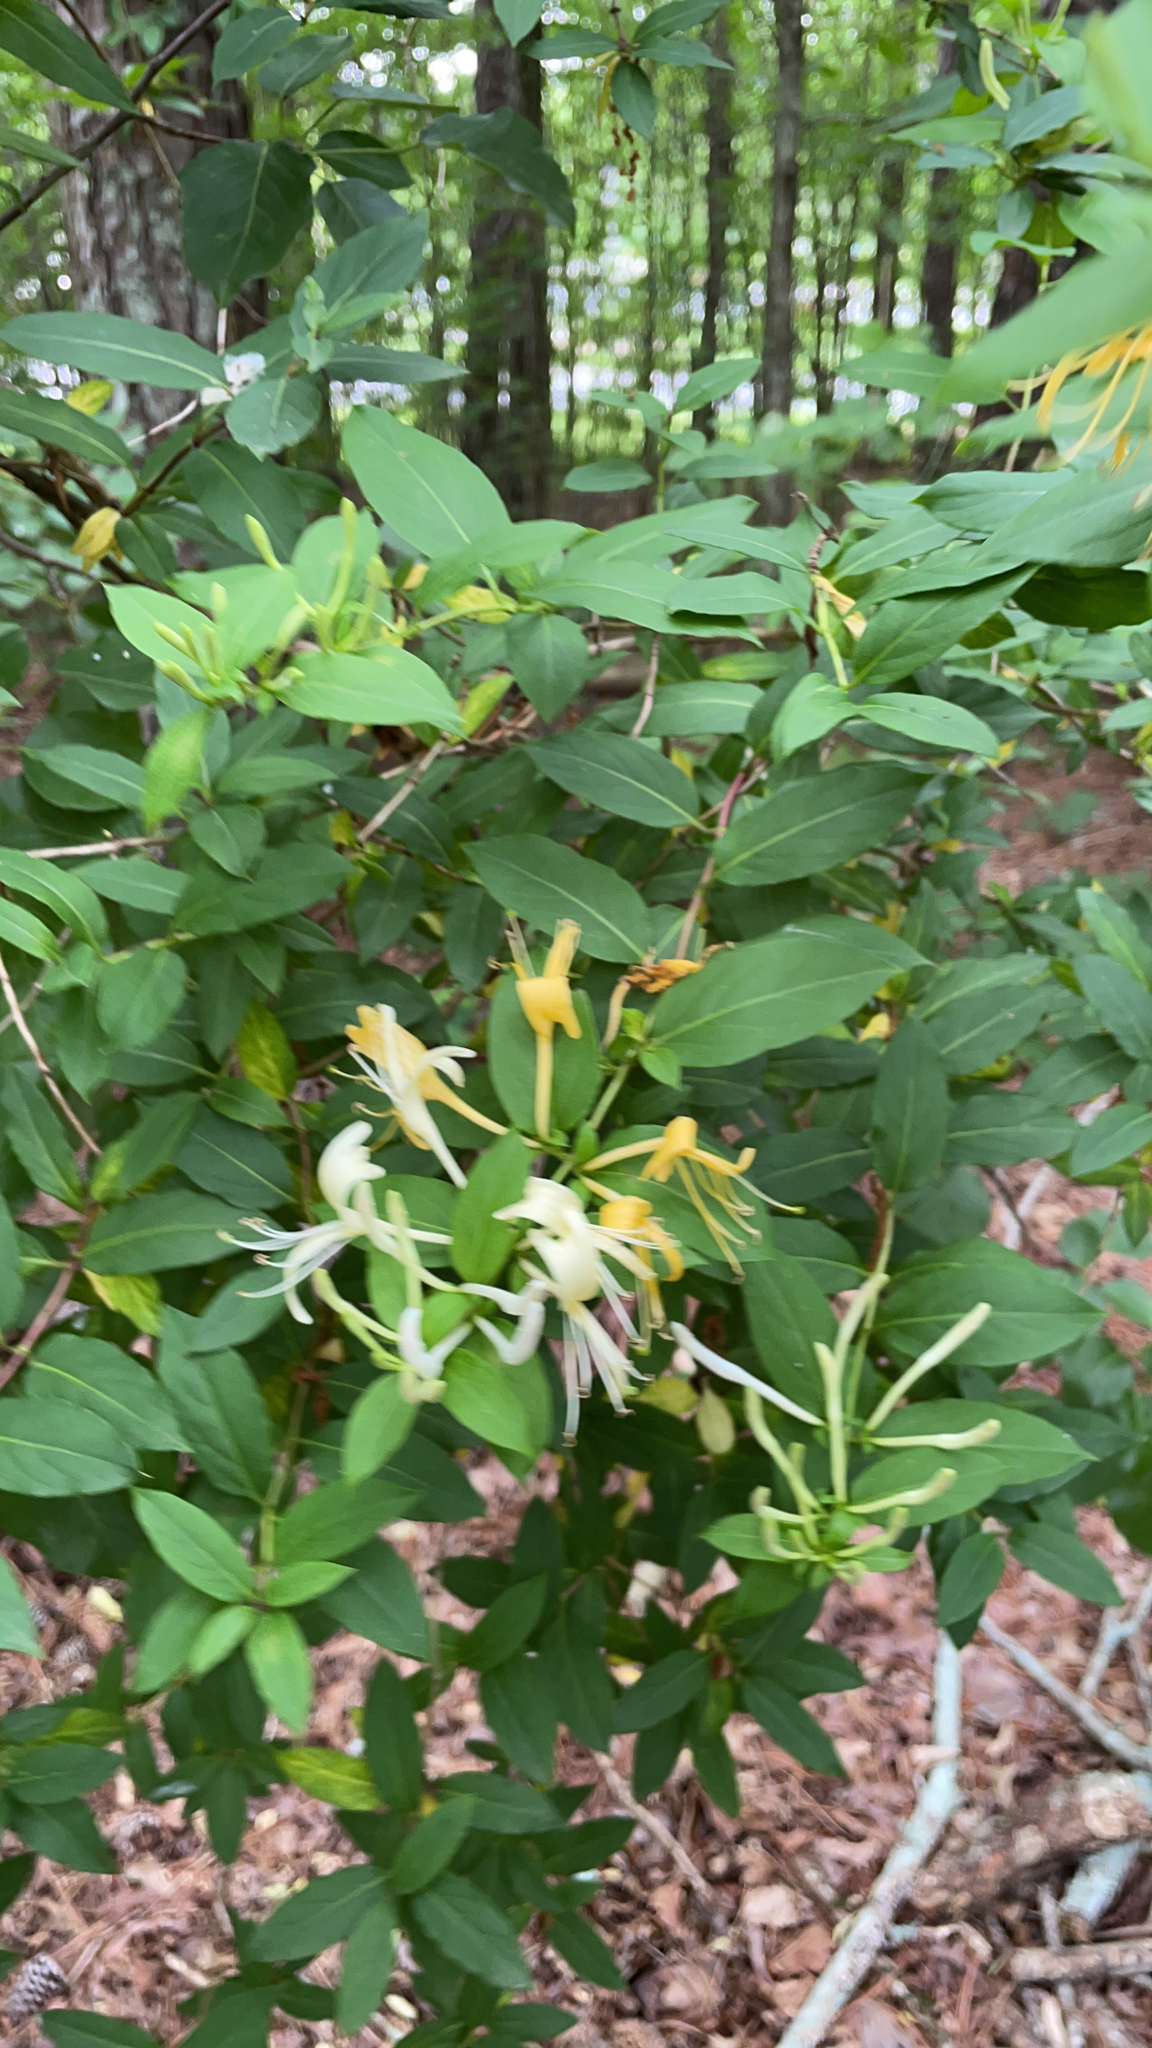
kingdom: Plantae
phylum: Tracheophyta
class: Magnoliopsida
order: Dipsacales
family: Caprifoliaceae
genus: Lonicera
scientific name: Lonicera japonica
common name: Japanese honeysuckle
